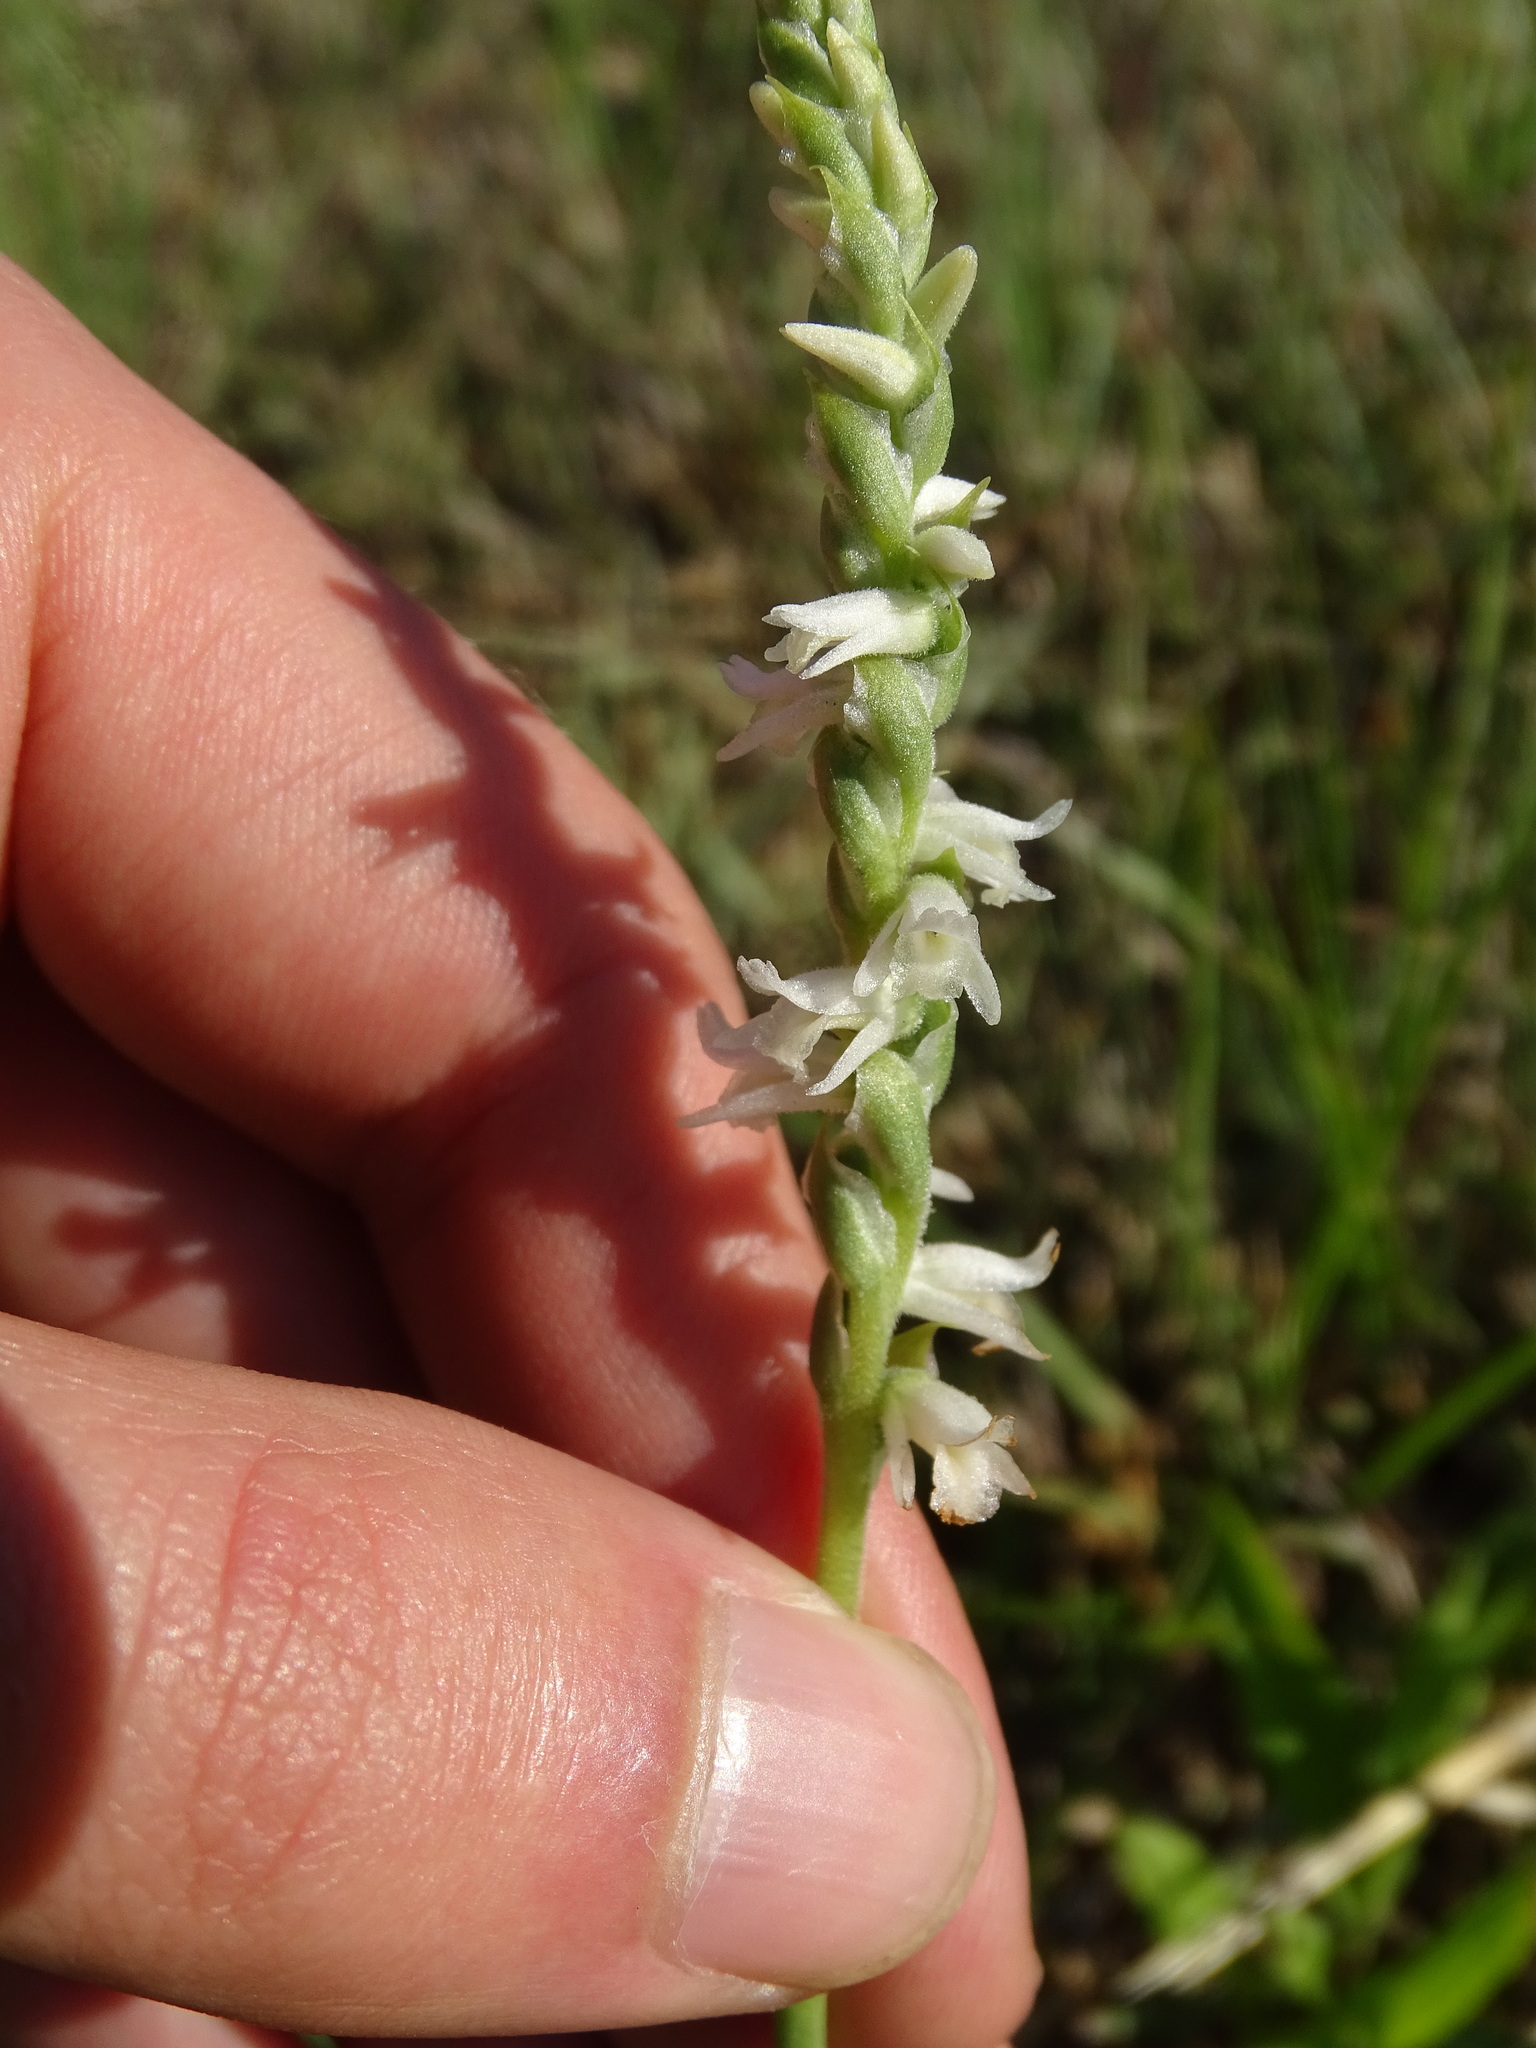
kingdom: Plantae
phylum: Tracheophyta
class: Liliopsida
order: Asparagales
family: Orchidaceae
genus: Spiranthes
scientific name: Spiranthes vernalis
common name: Spring ladies'-tresses
